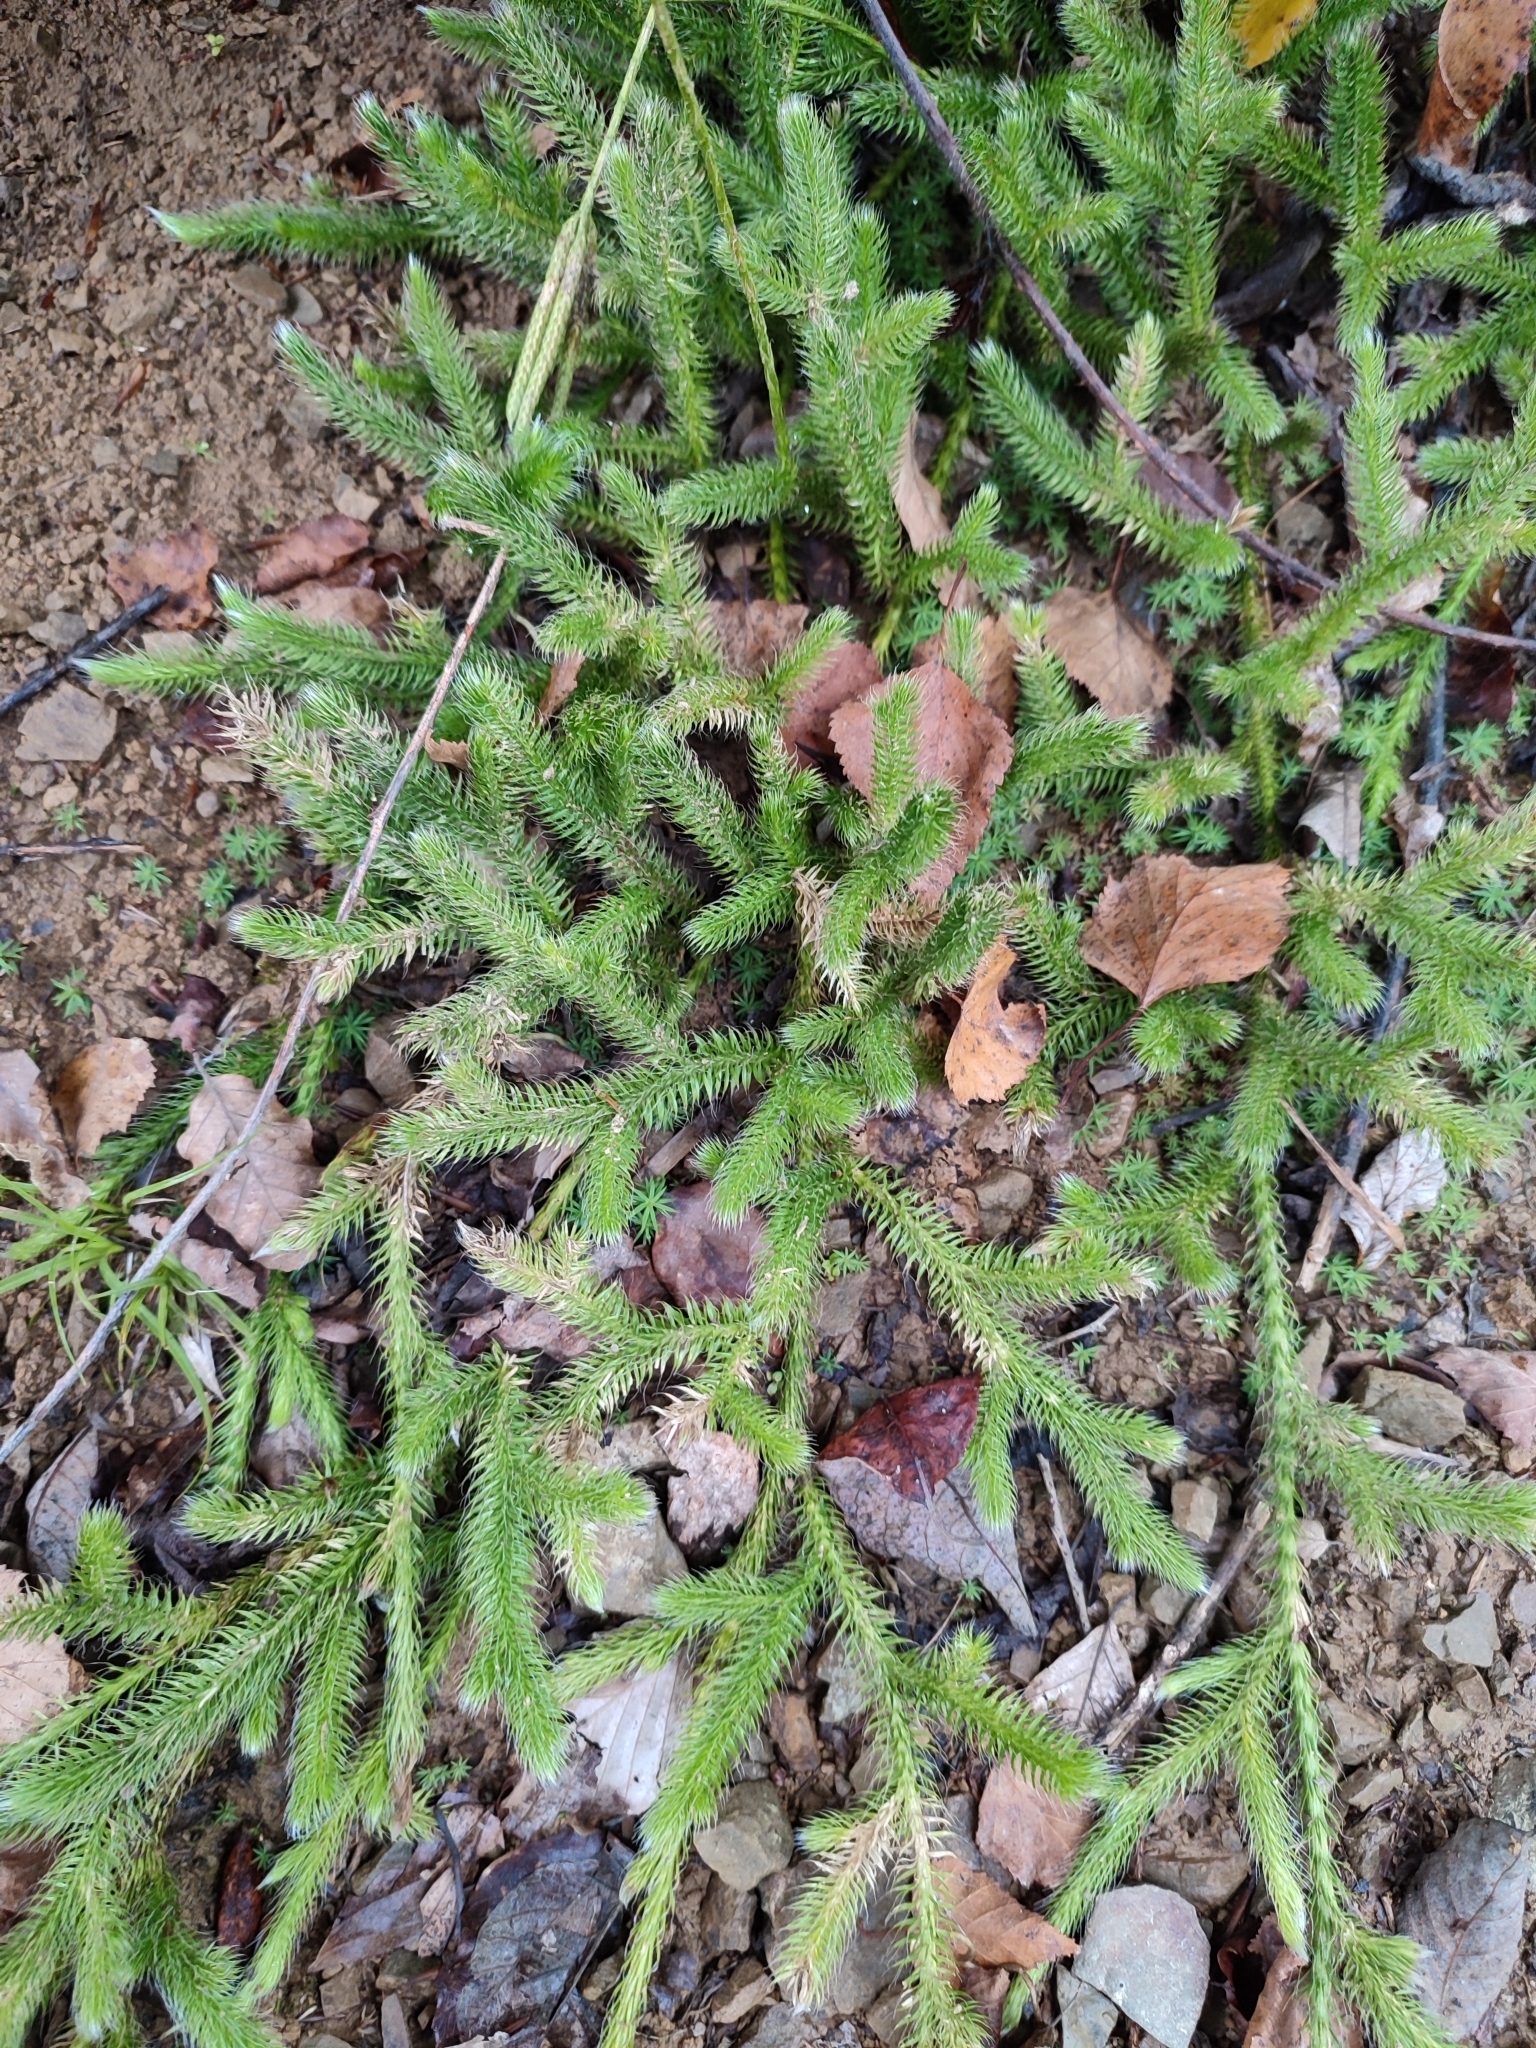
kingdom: Plantae
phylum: Tracheophyta
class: Lycopodiopsida
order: Lycopodiales
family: Lycopodiaceae
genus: Lycopodium
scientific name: Lycopodium clavatum
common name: Stag's-horn clubmoss
